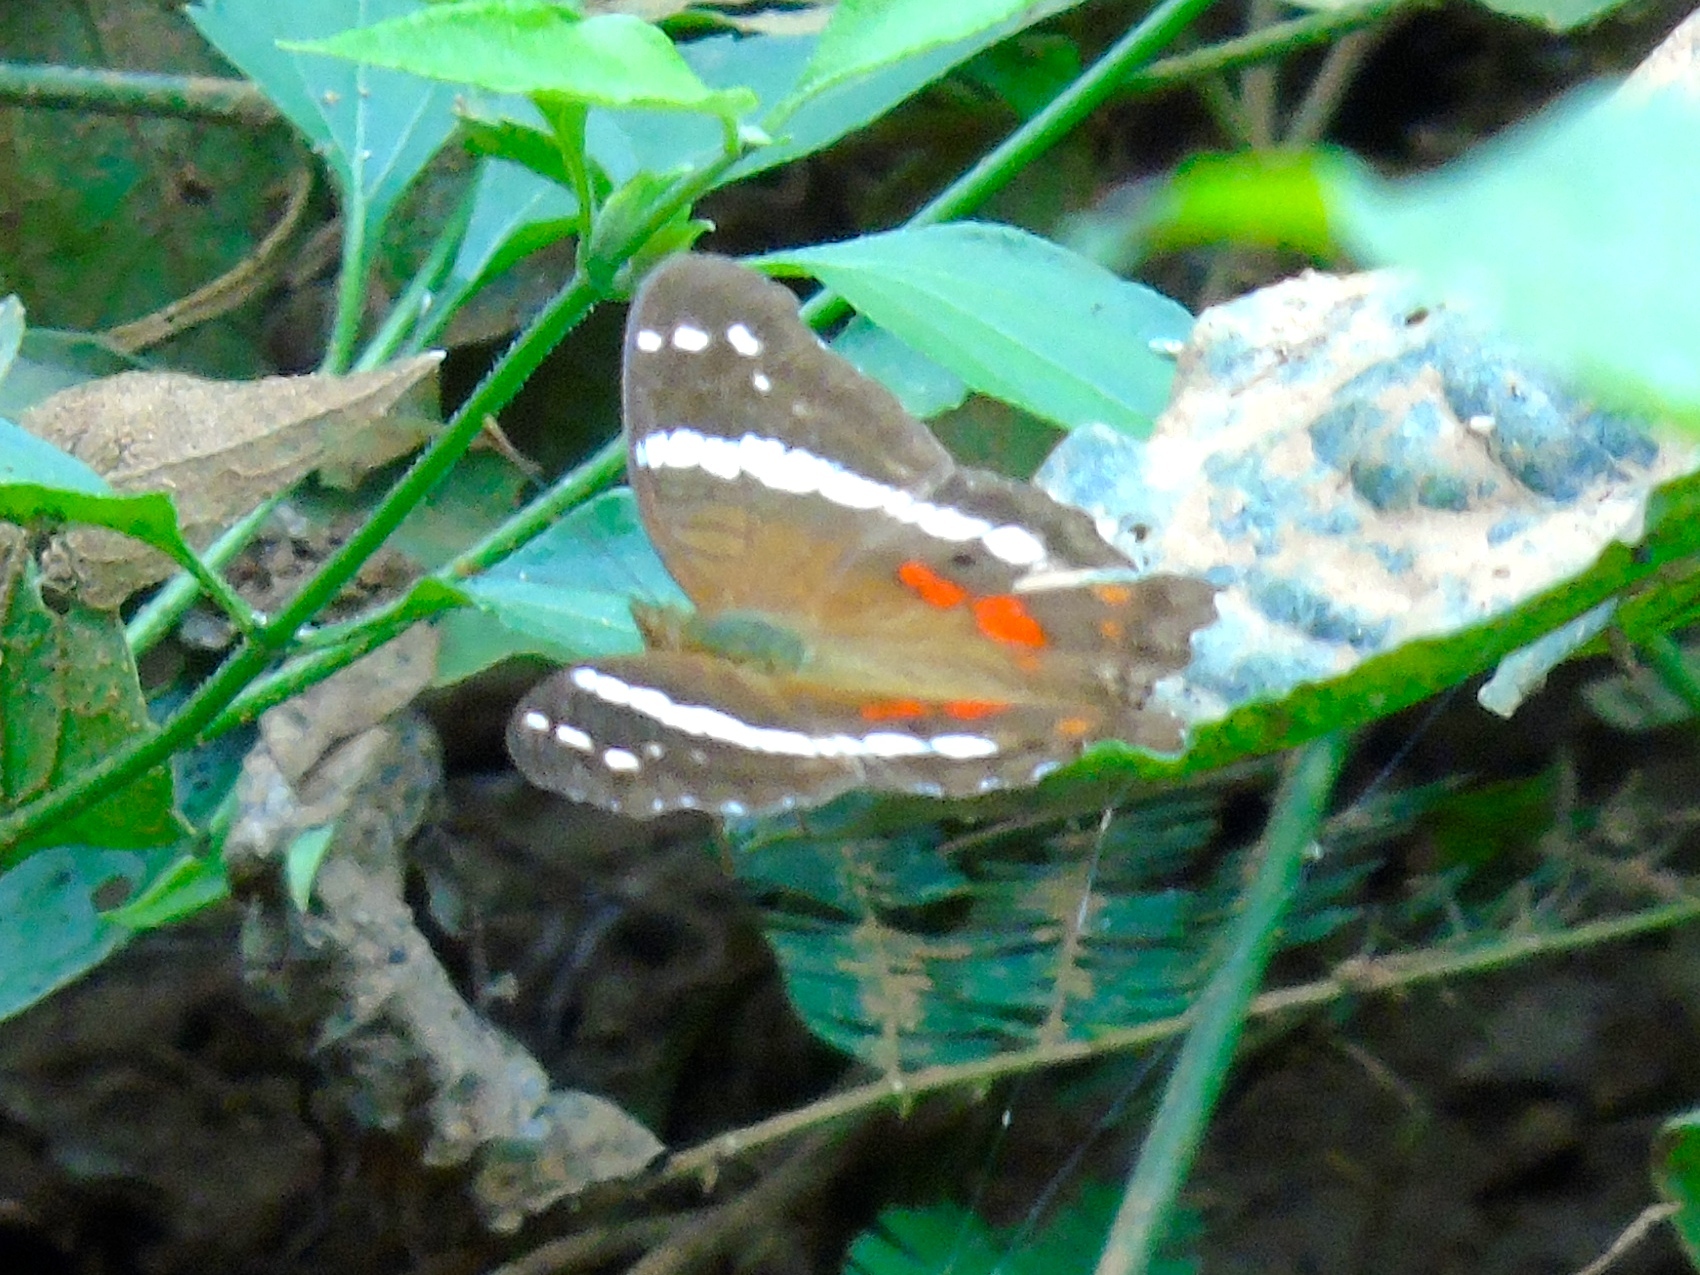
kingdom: Animalia
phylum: Arthropoda
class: Insecta
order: Lepidoptera
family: Nymphalidae
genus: Anartia
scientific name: Anartia fatima
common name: Banded peacock
